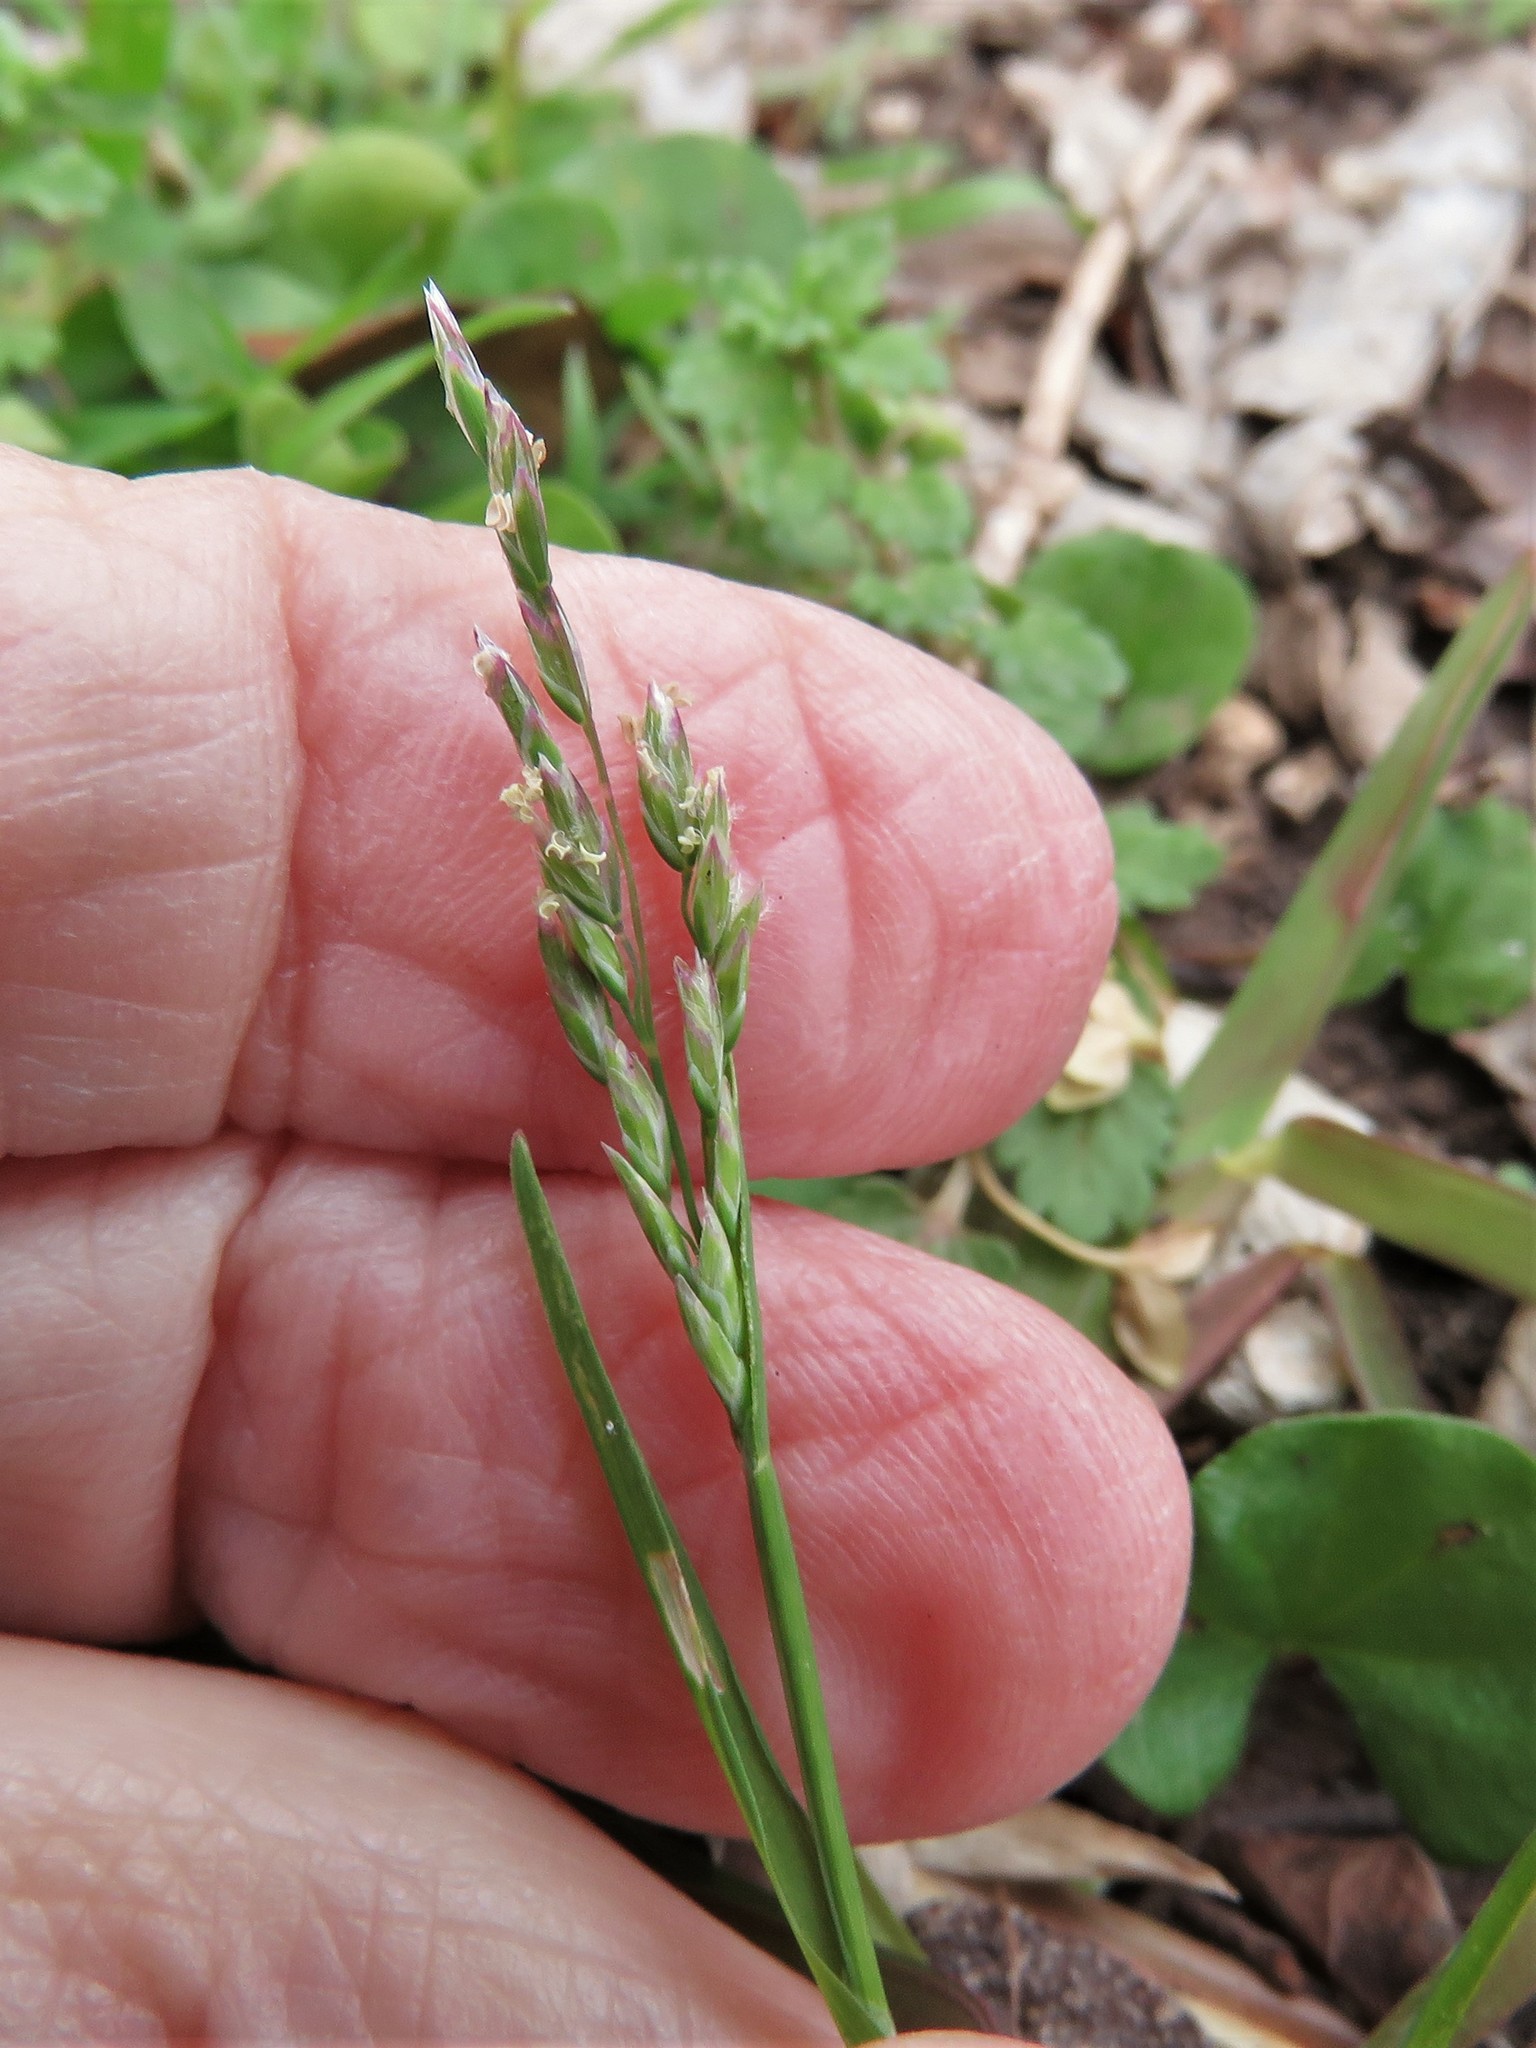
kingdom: Plantae
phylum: Tracheophyta
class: Liliopsida
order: Poales
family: Poaceae
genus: Poa
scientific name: Poa annua
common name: Annual bluegrass
